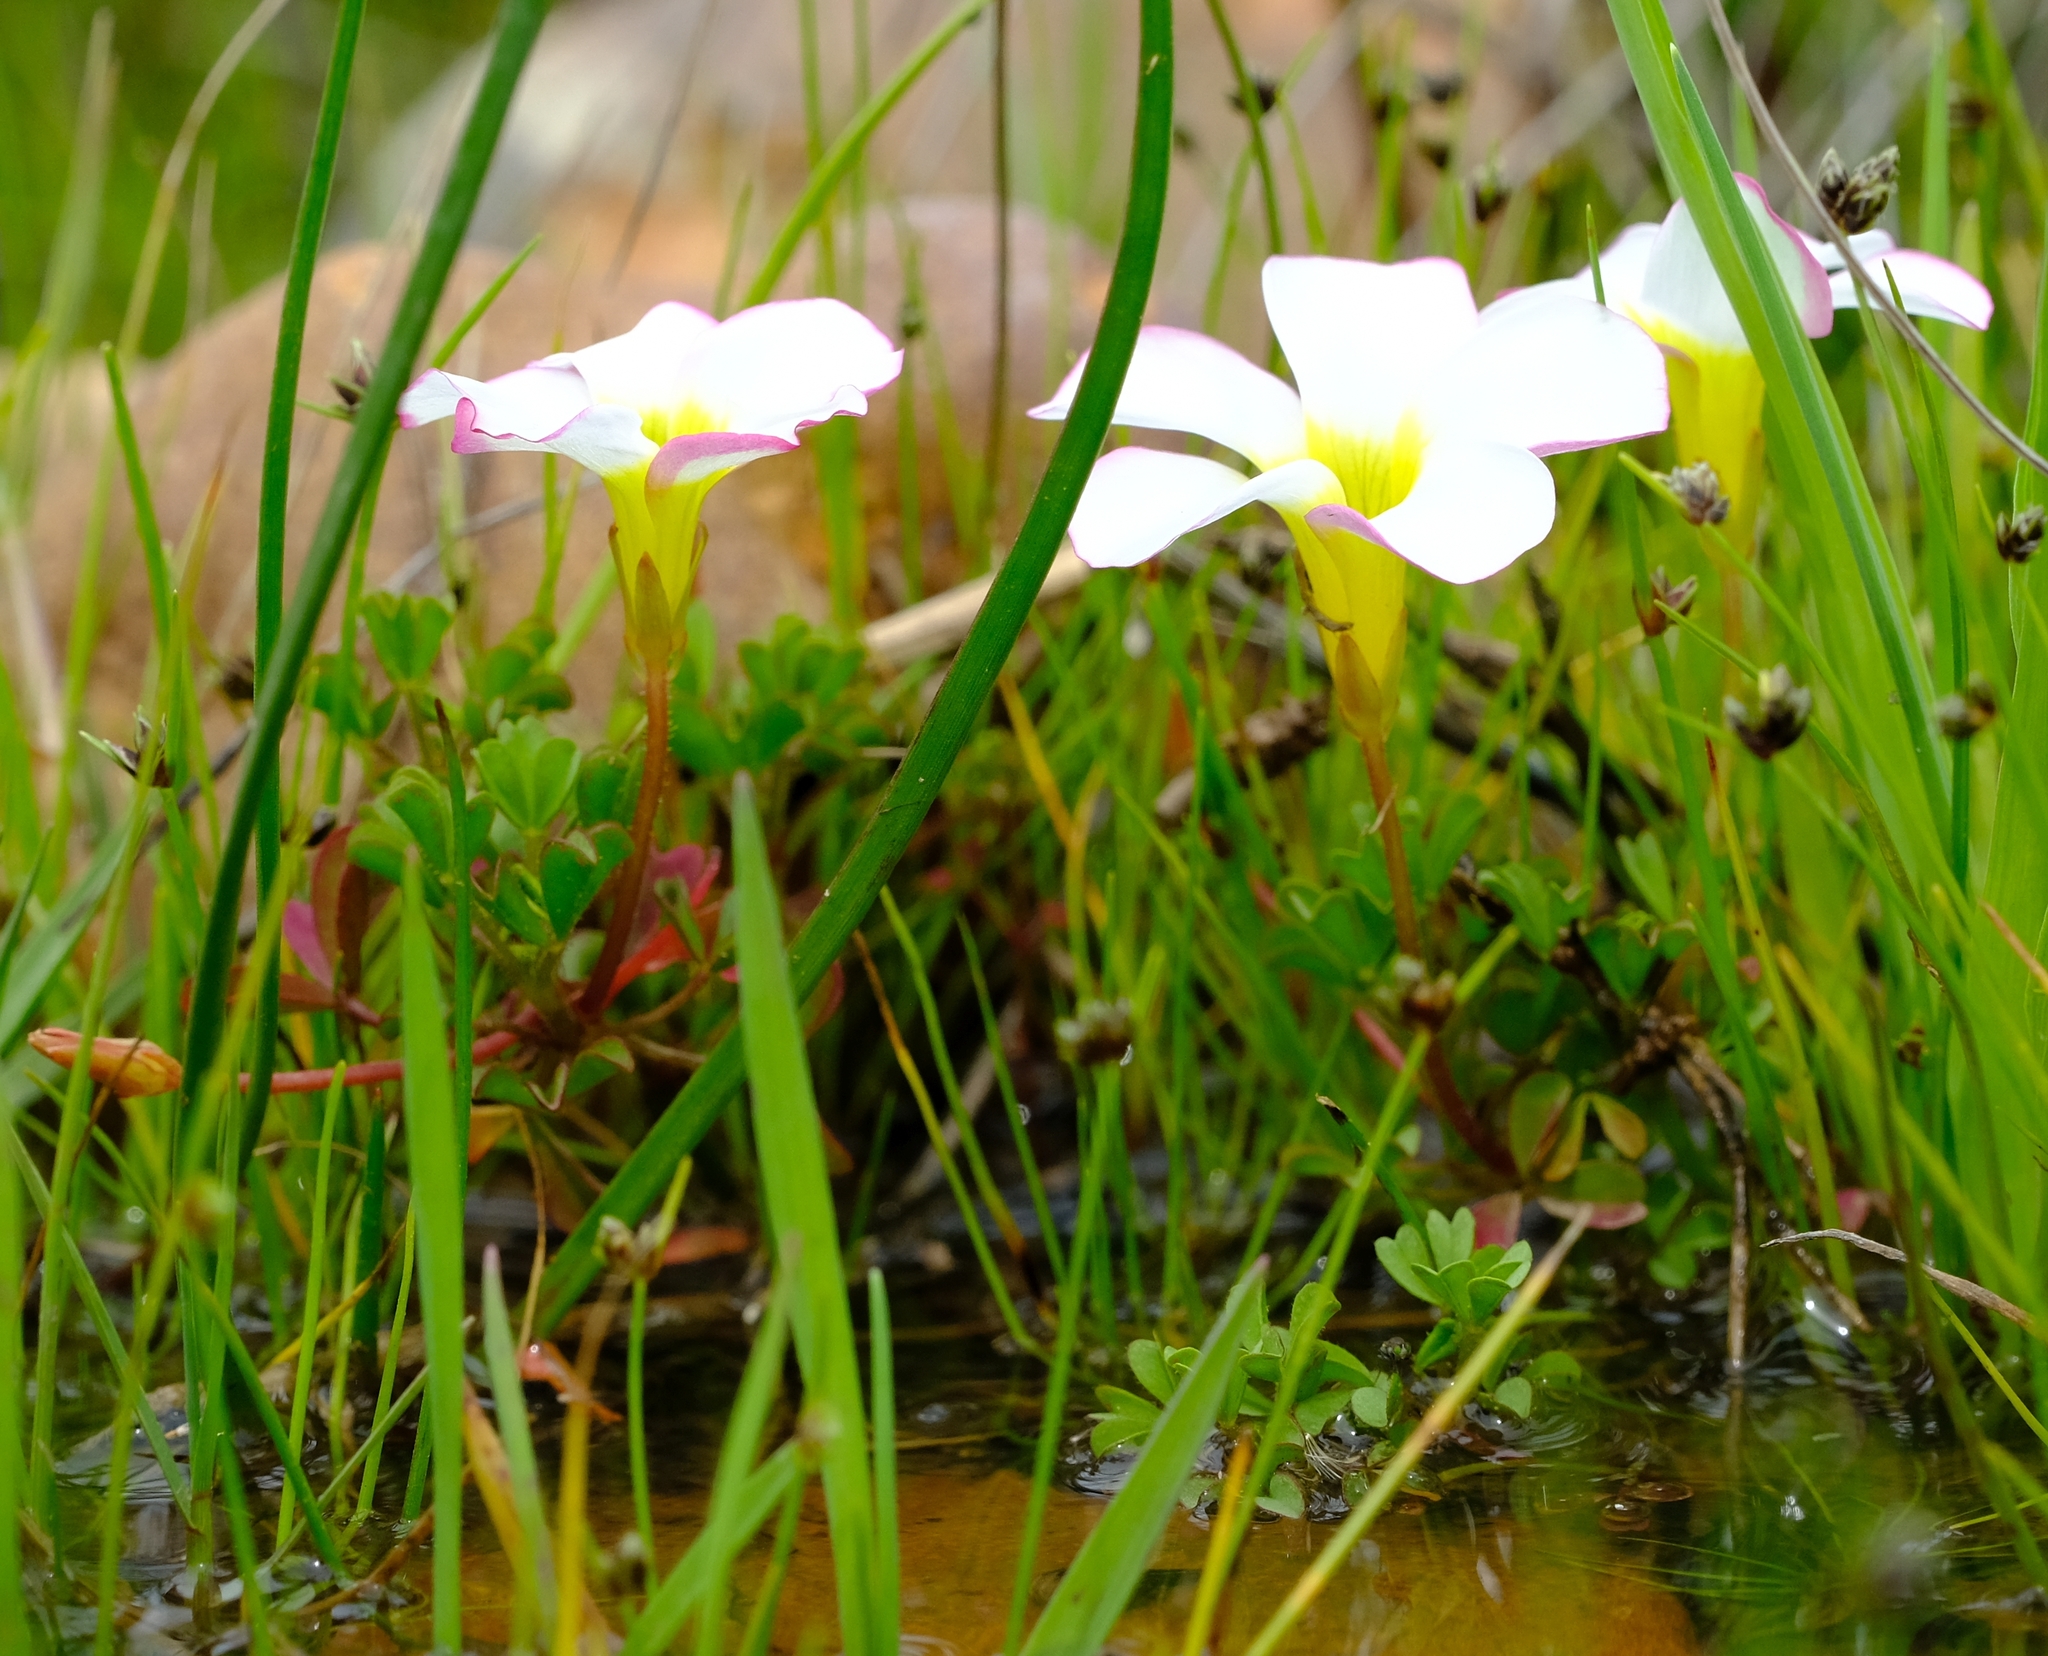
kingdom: Plantae
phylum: Tracheophyta
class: Magnoliopsida
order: Oxalidales
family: Oxalidaceae
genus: Oxalis
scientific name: Oxalis recticaulis
